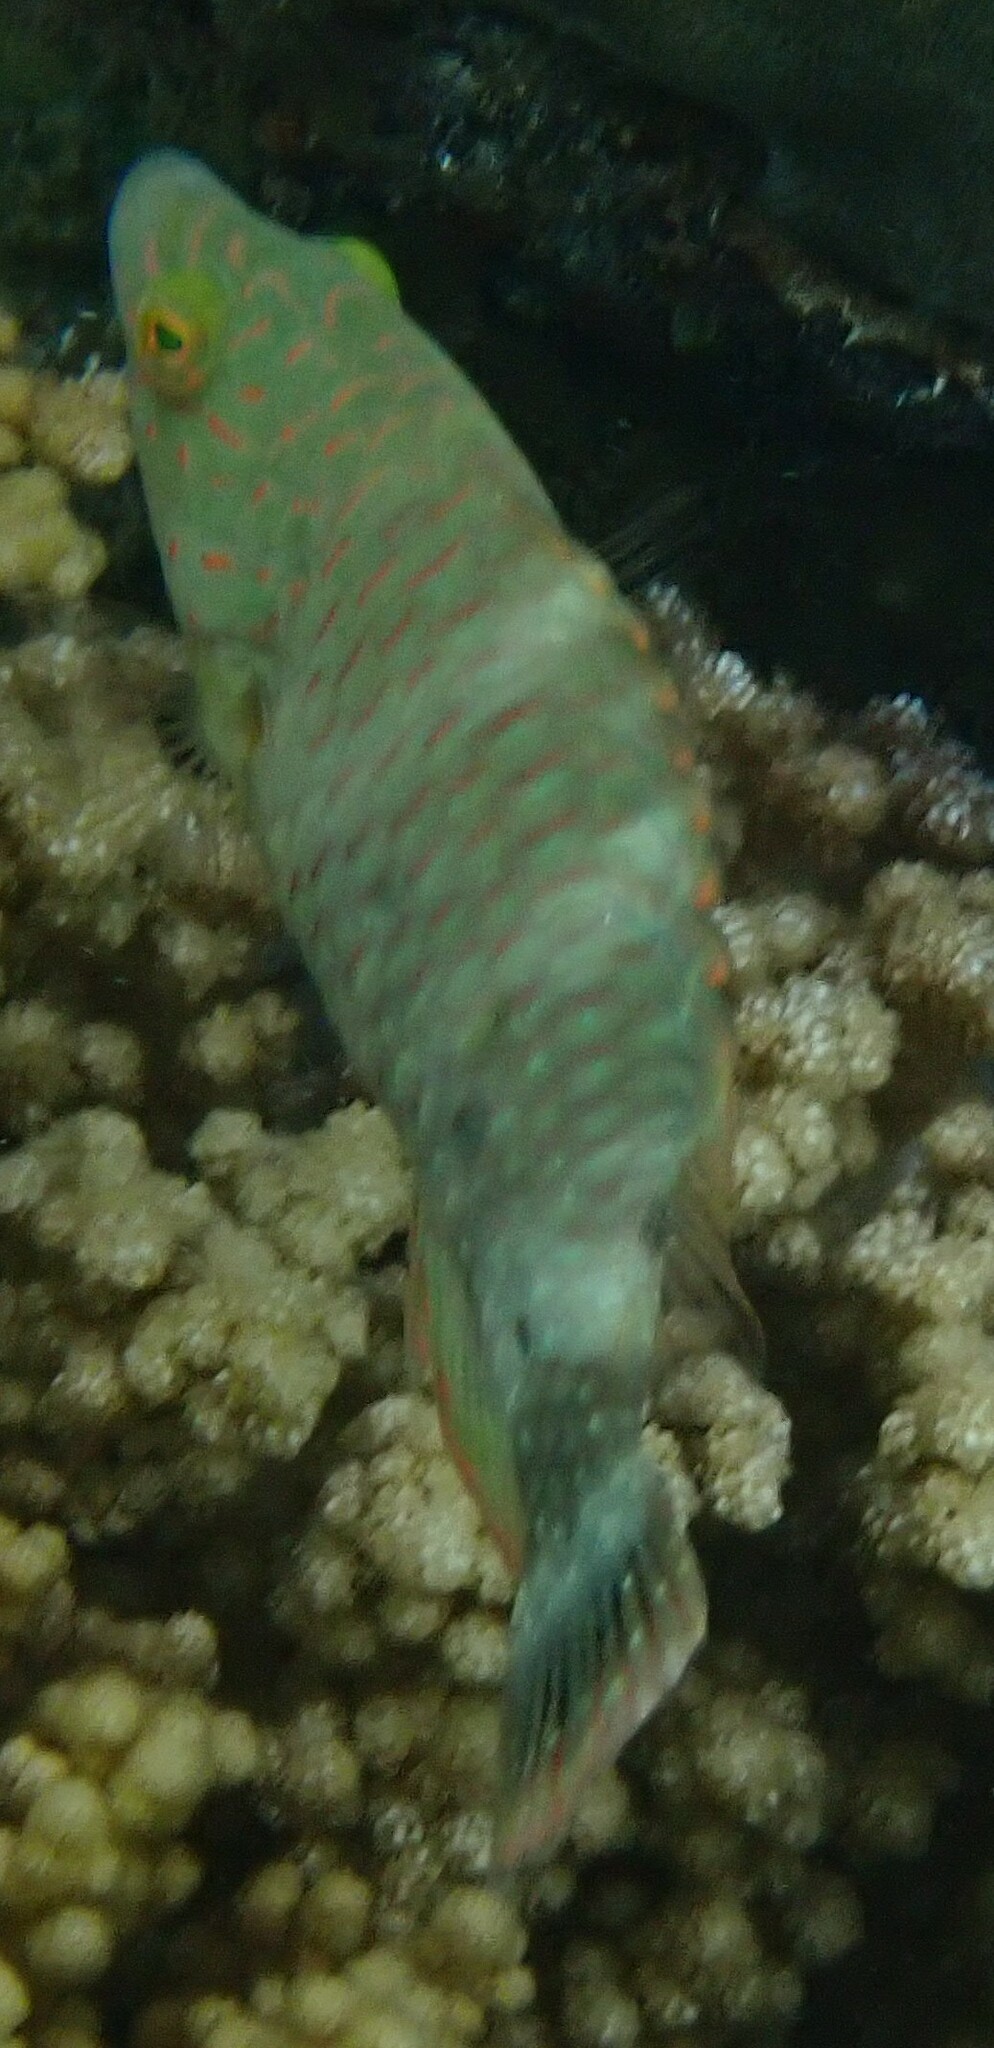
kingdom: Animalia
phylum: Chordata
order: Perciformes
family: Labridae
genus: Cheilinus
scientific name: Cheilinus trilobatus
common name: Tripletail maori wrasse
